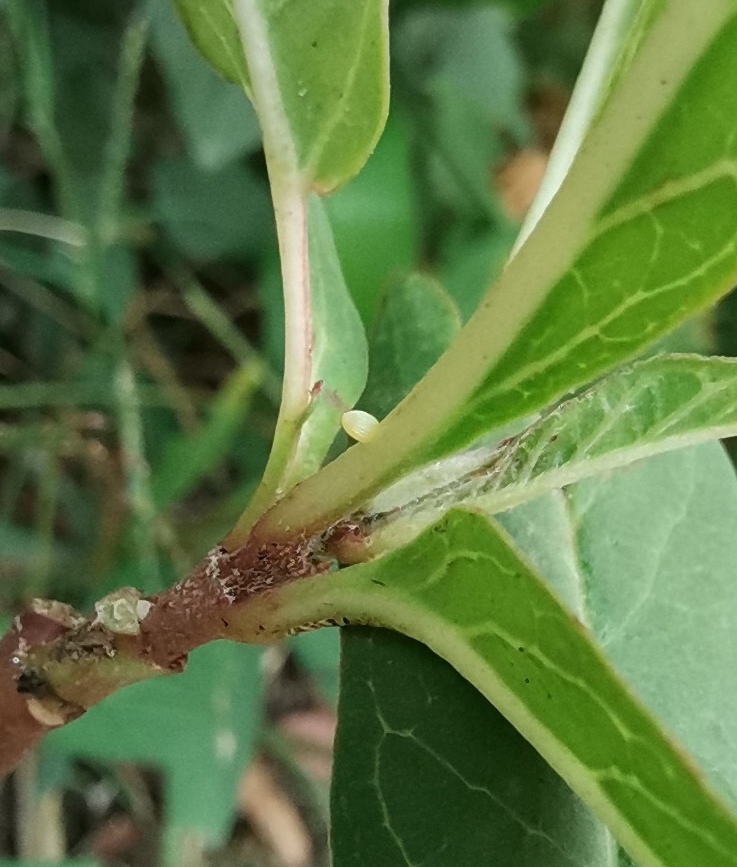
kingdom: Animalia
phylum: Arthropoda
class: Insecta
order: Lepidoptera
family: Nymphalidae
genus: Danaus
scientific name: Danaus plexippus
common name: Monarch
